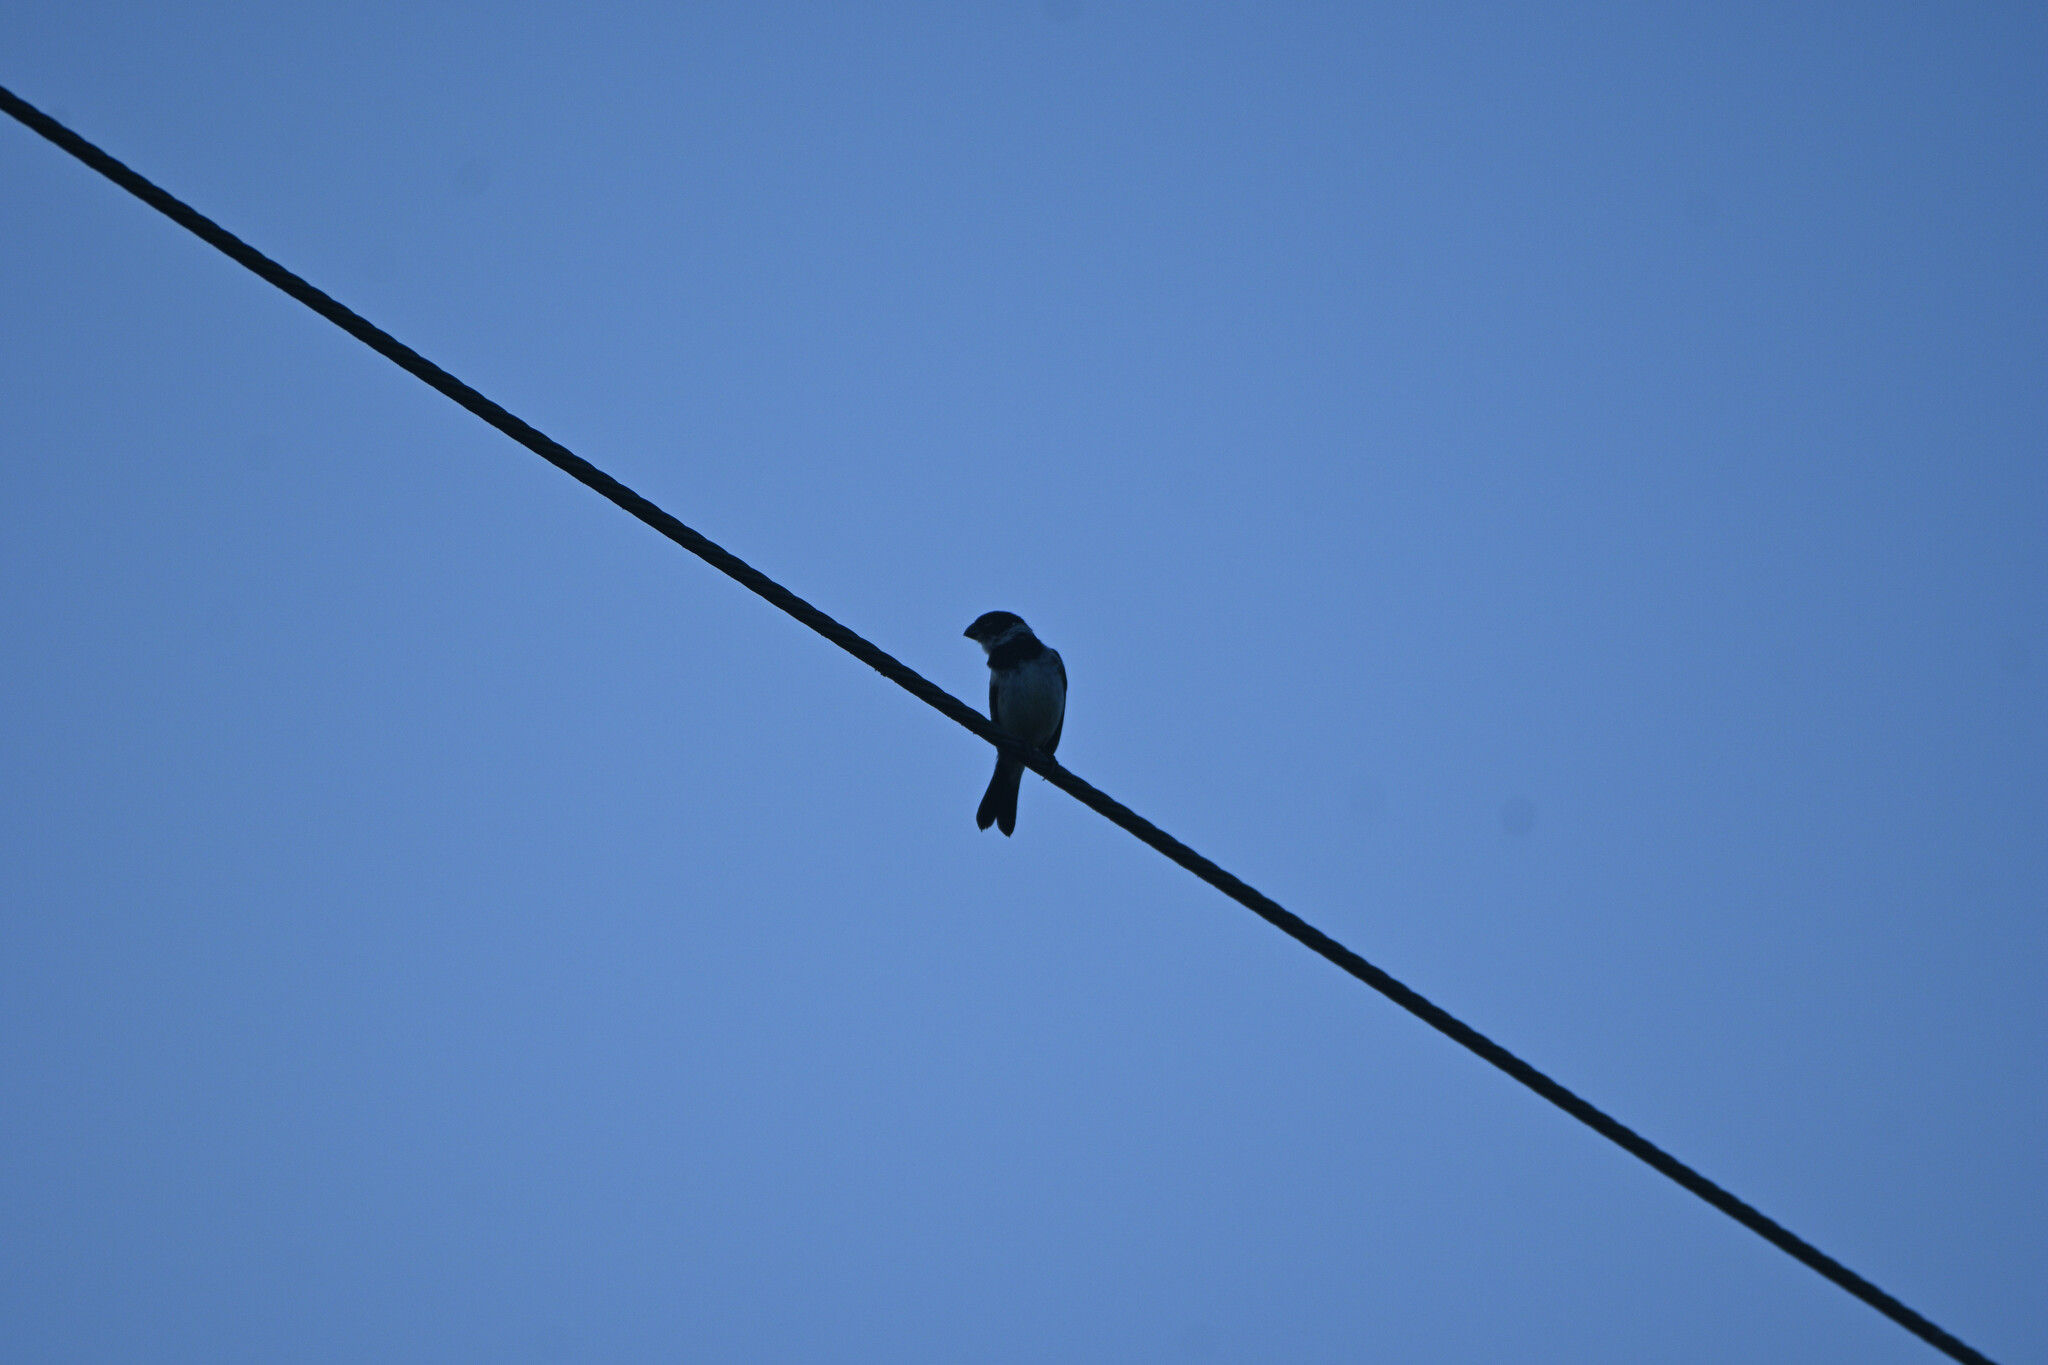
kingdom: Animalia
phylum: Chordata
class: Aves
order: Passeriformes
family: Thraupidae
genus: Sporophila
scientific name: Sporophila morelleti
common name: Morelet's seedeater
